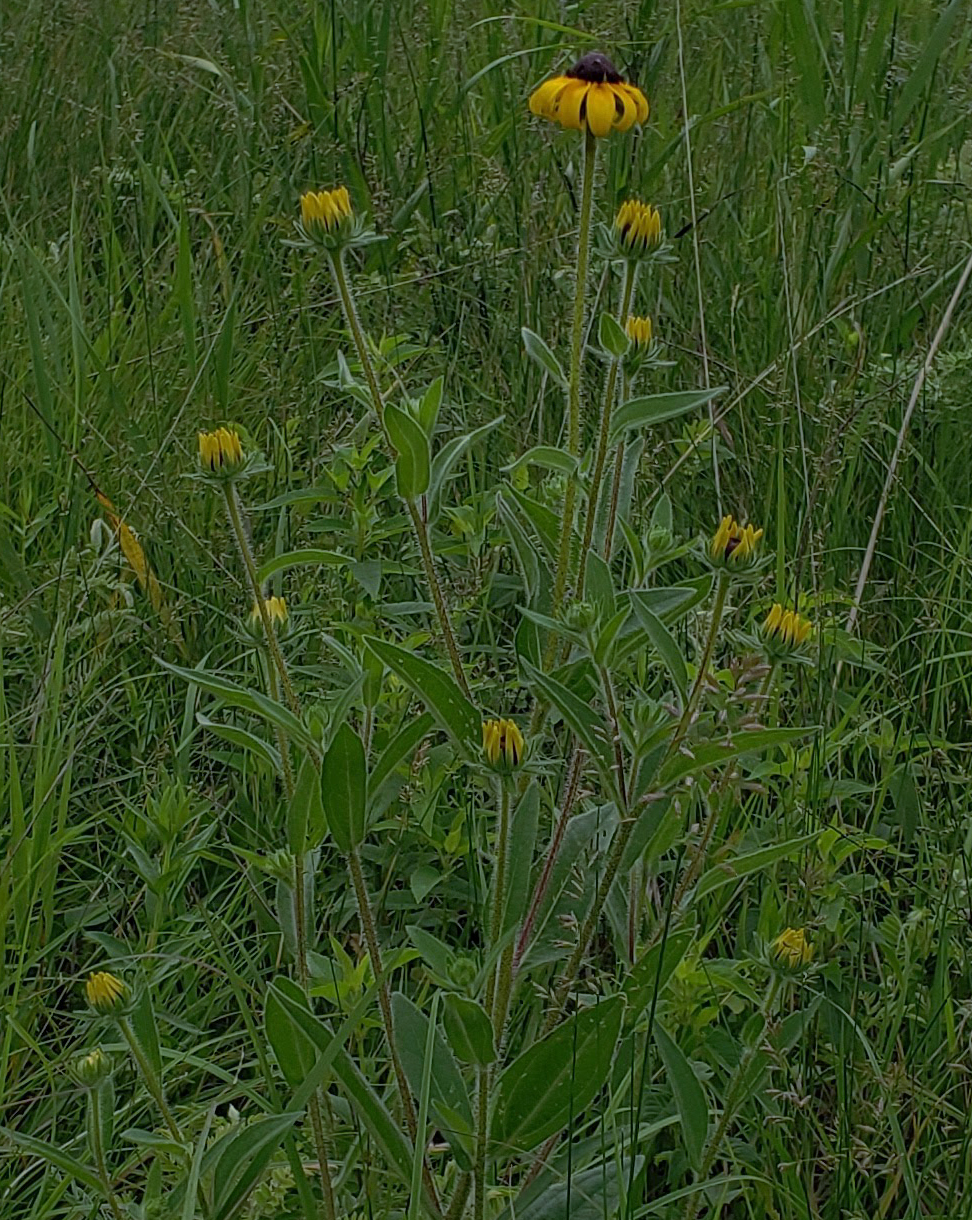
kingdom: Plantae
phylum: Tracheophyta
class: Magnoliopsida
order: Asterales
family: Asteraceae
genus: Rudbeckia
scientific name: Rudbeckia hirta
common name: Black-eyed-susan
